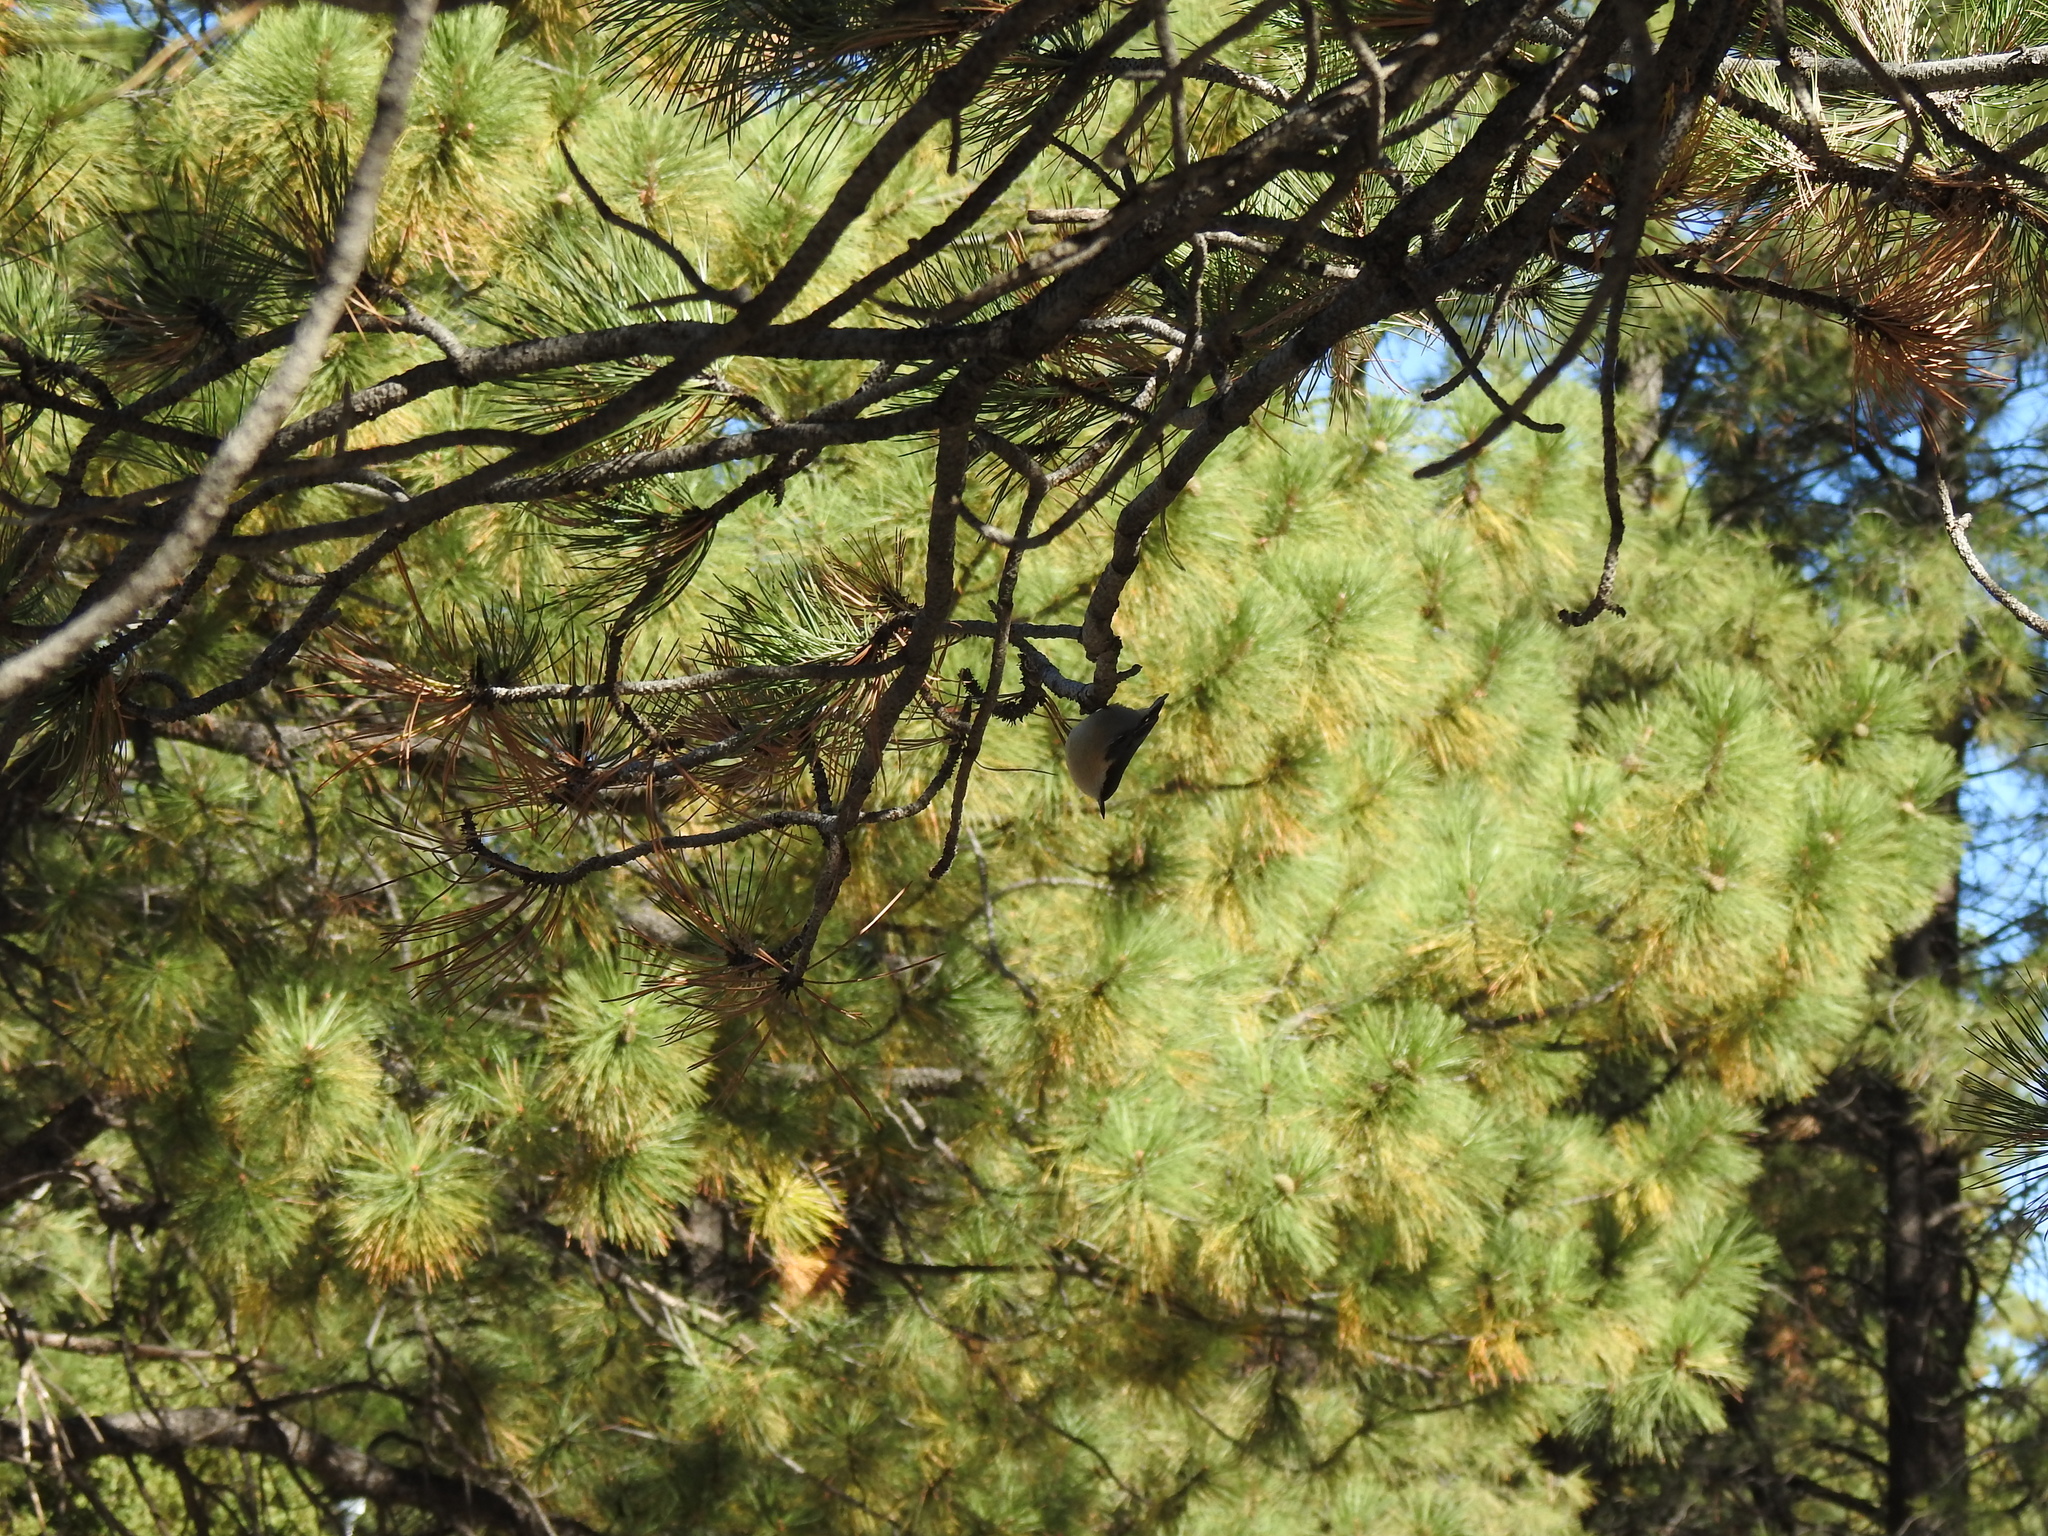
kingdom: Animalia
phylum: Chordata
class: Aves
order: Passeriformes
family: Sittidae
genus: Sitta
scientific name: Sitta pygmaea
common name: Pygmy nuthatch
